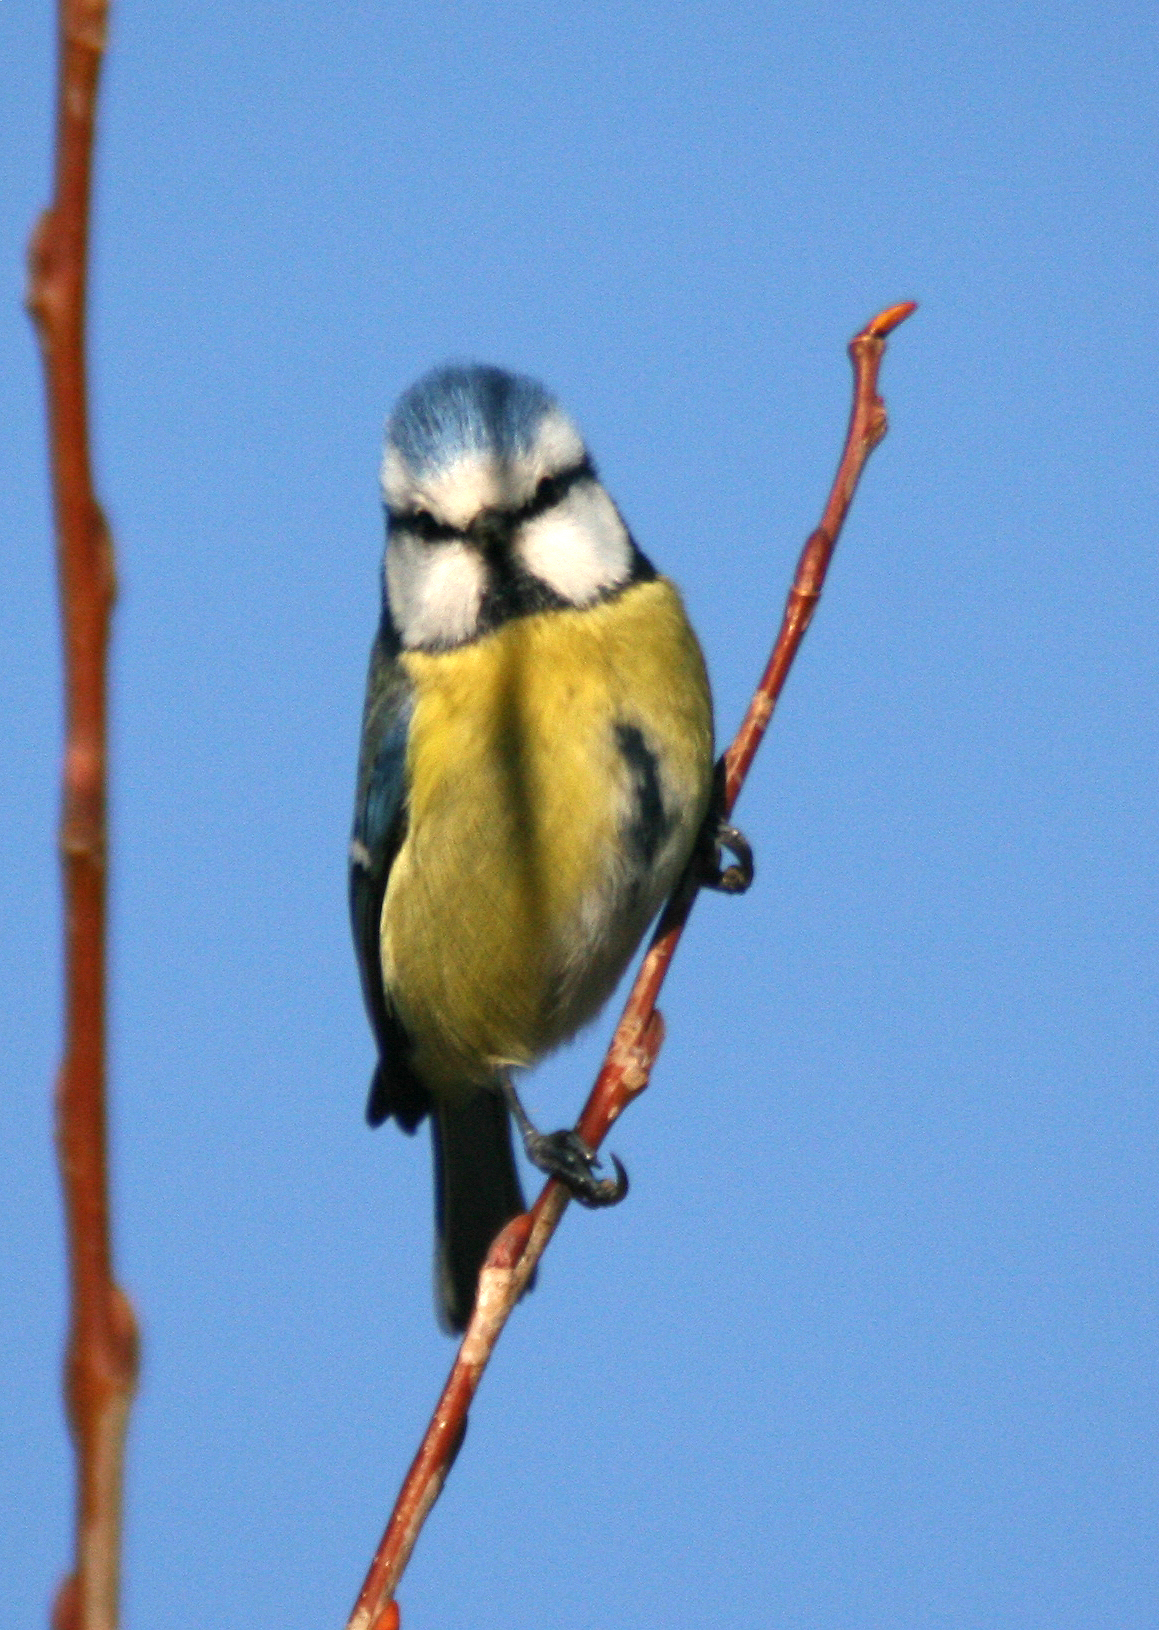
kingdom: Animalia
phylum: Chordata
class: Aves
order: Passeriformes
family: Paridae
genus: Cyanistes
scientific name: Cyanistes caeruleus
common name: Eurasian blue tit
